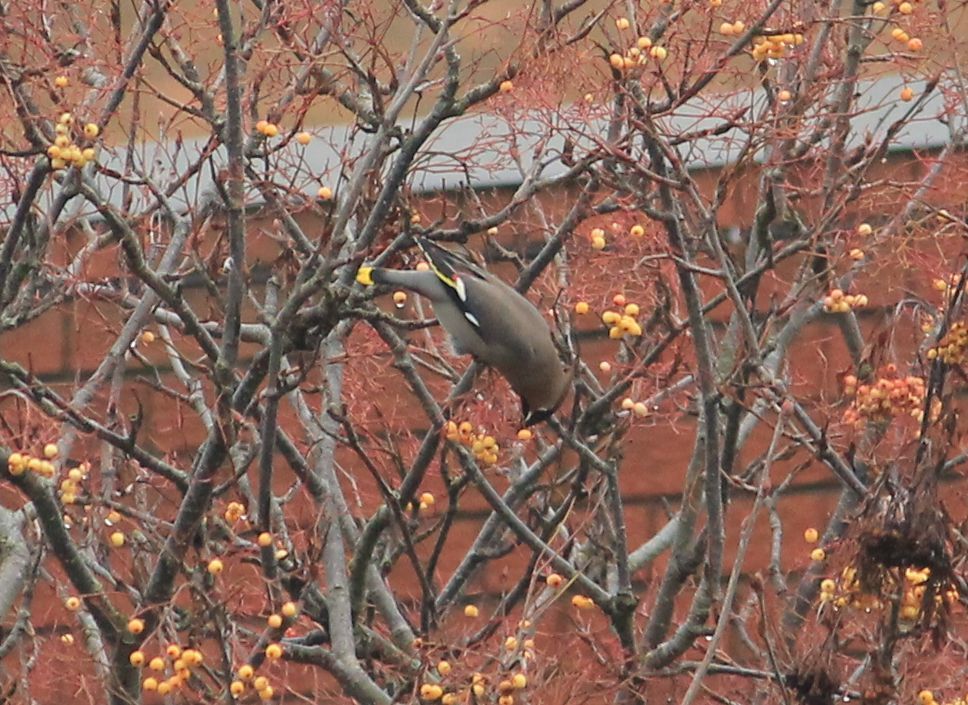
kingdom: Animalia
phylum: Chordata
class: Aves
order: Passeriformes
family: Bombycillidae
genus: Bombycilla
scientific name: Bombycilla garrulus
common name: Bohemian waxwing
